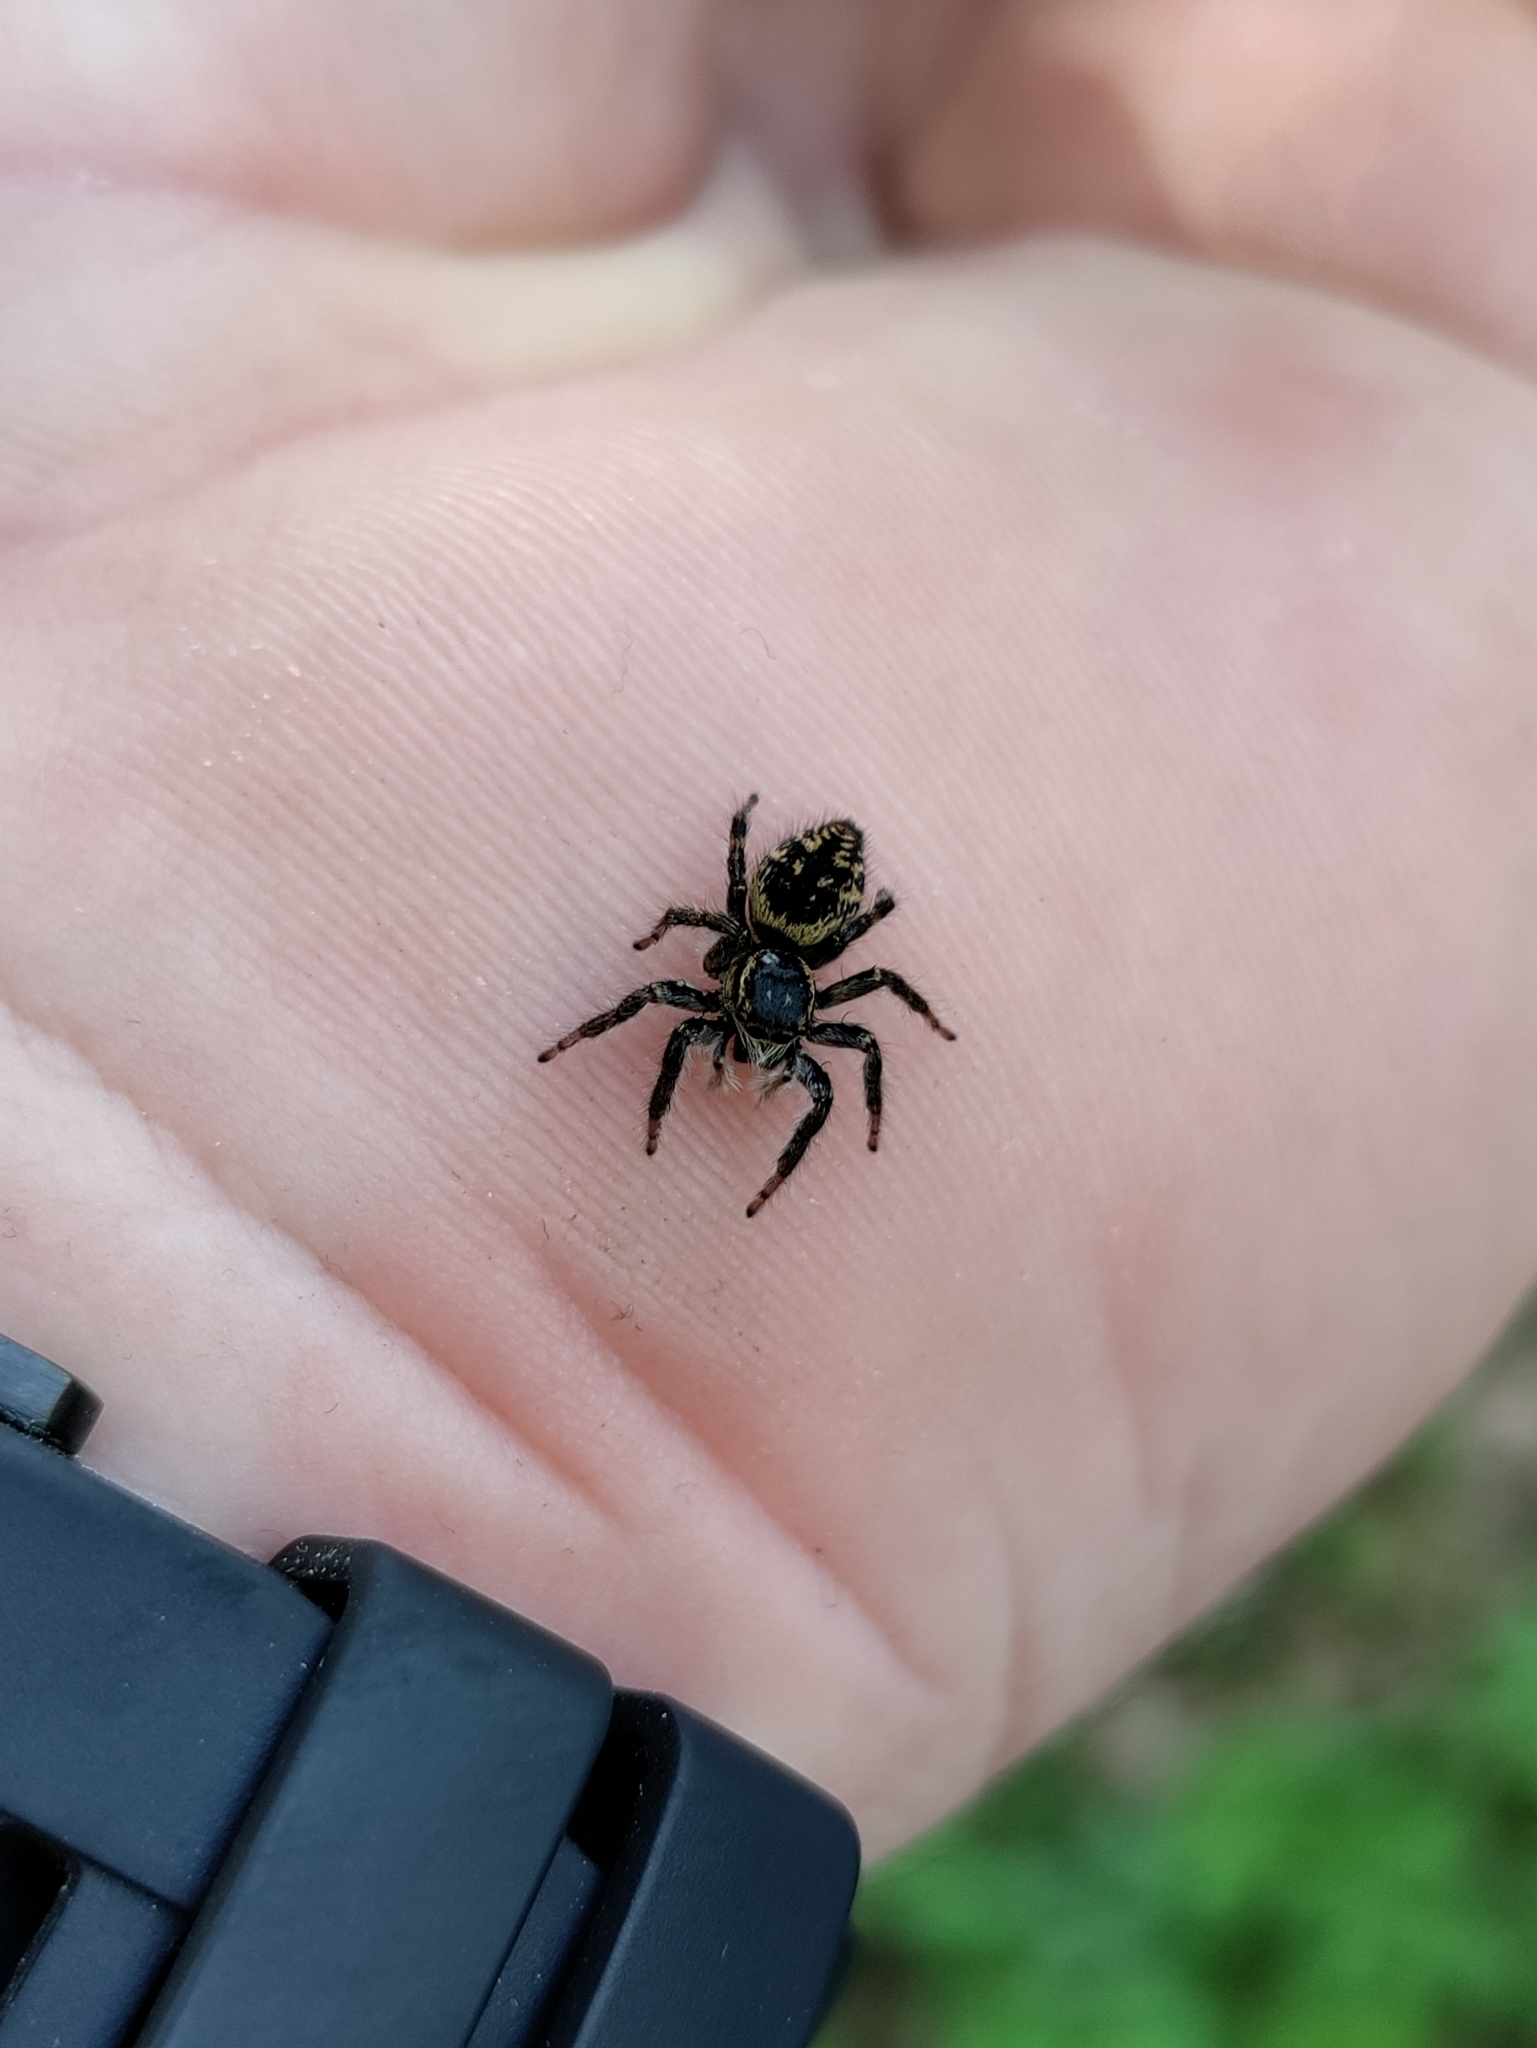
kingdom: Animalia
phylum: Arthropoda
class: Arachnida
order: Araneae
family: Salticidae
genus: Carrhotus
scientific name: Carrhotus xanthogramma
